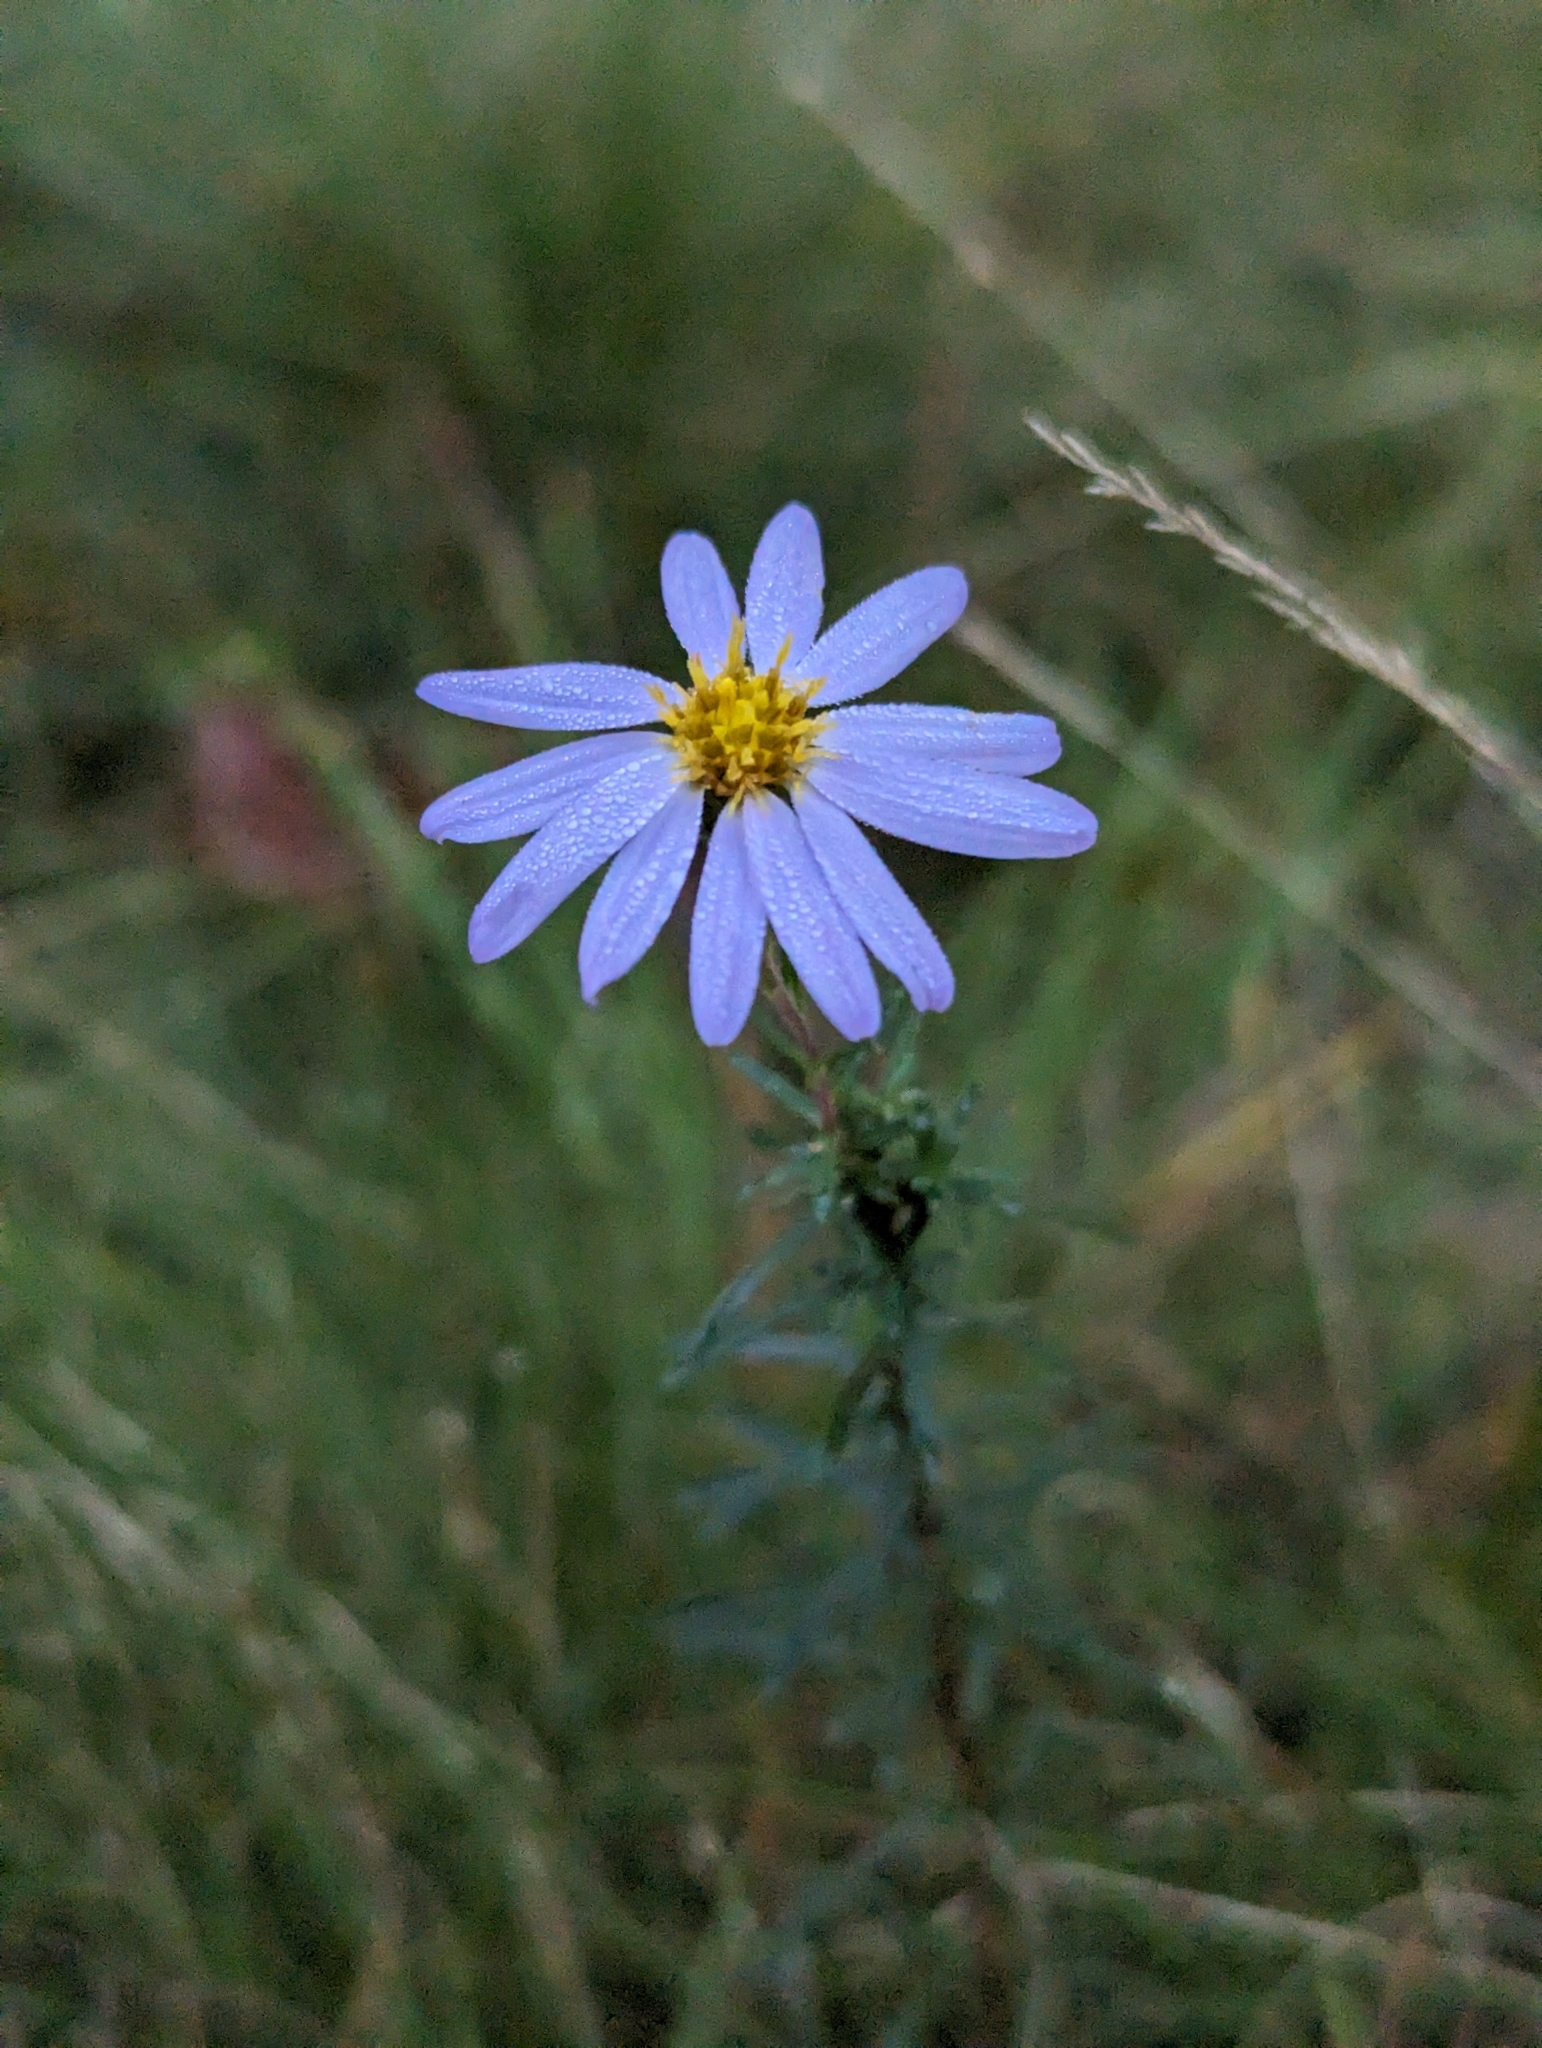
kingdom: Plantae
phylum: Tracheophyta
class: Magnoliopsida
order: Asterales
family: Asteraceae
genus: Ionactis
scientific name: Ionactis linariifolia
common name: Flax-leaf aster
